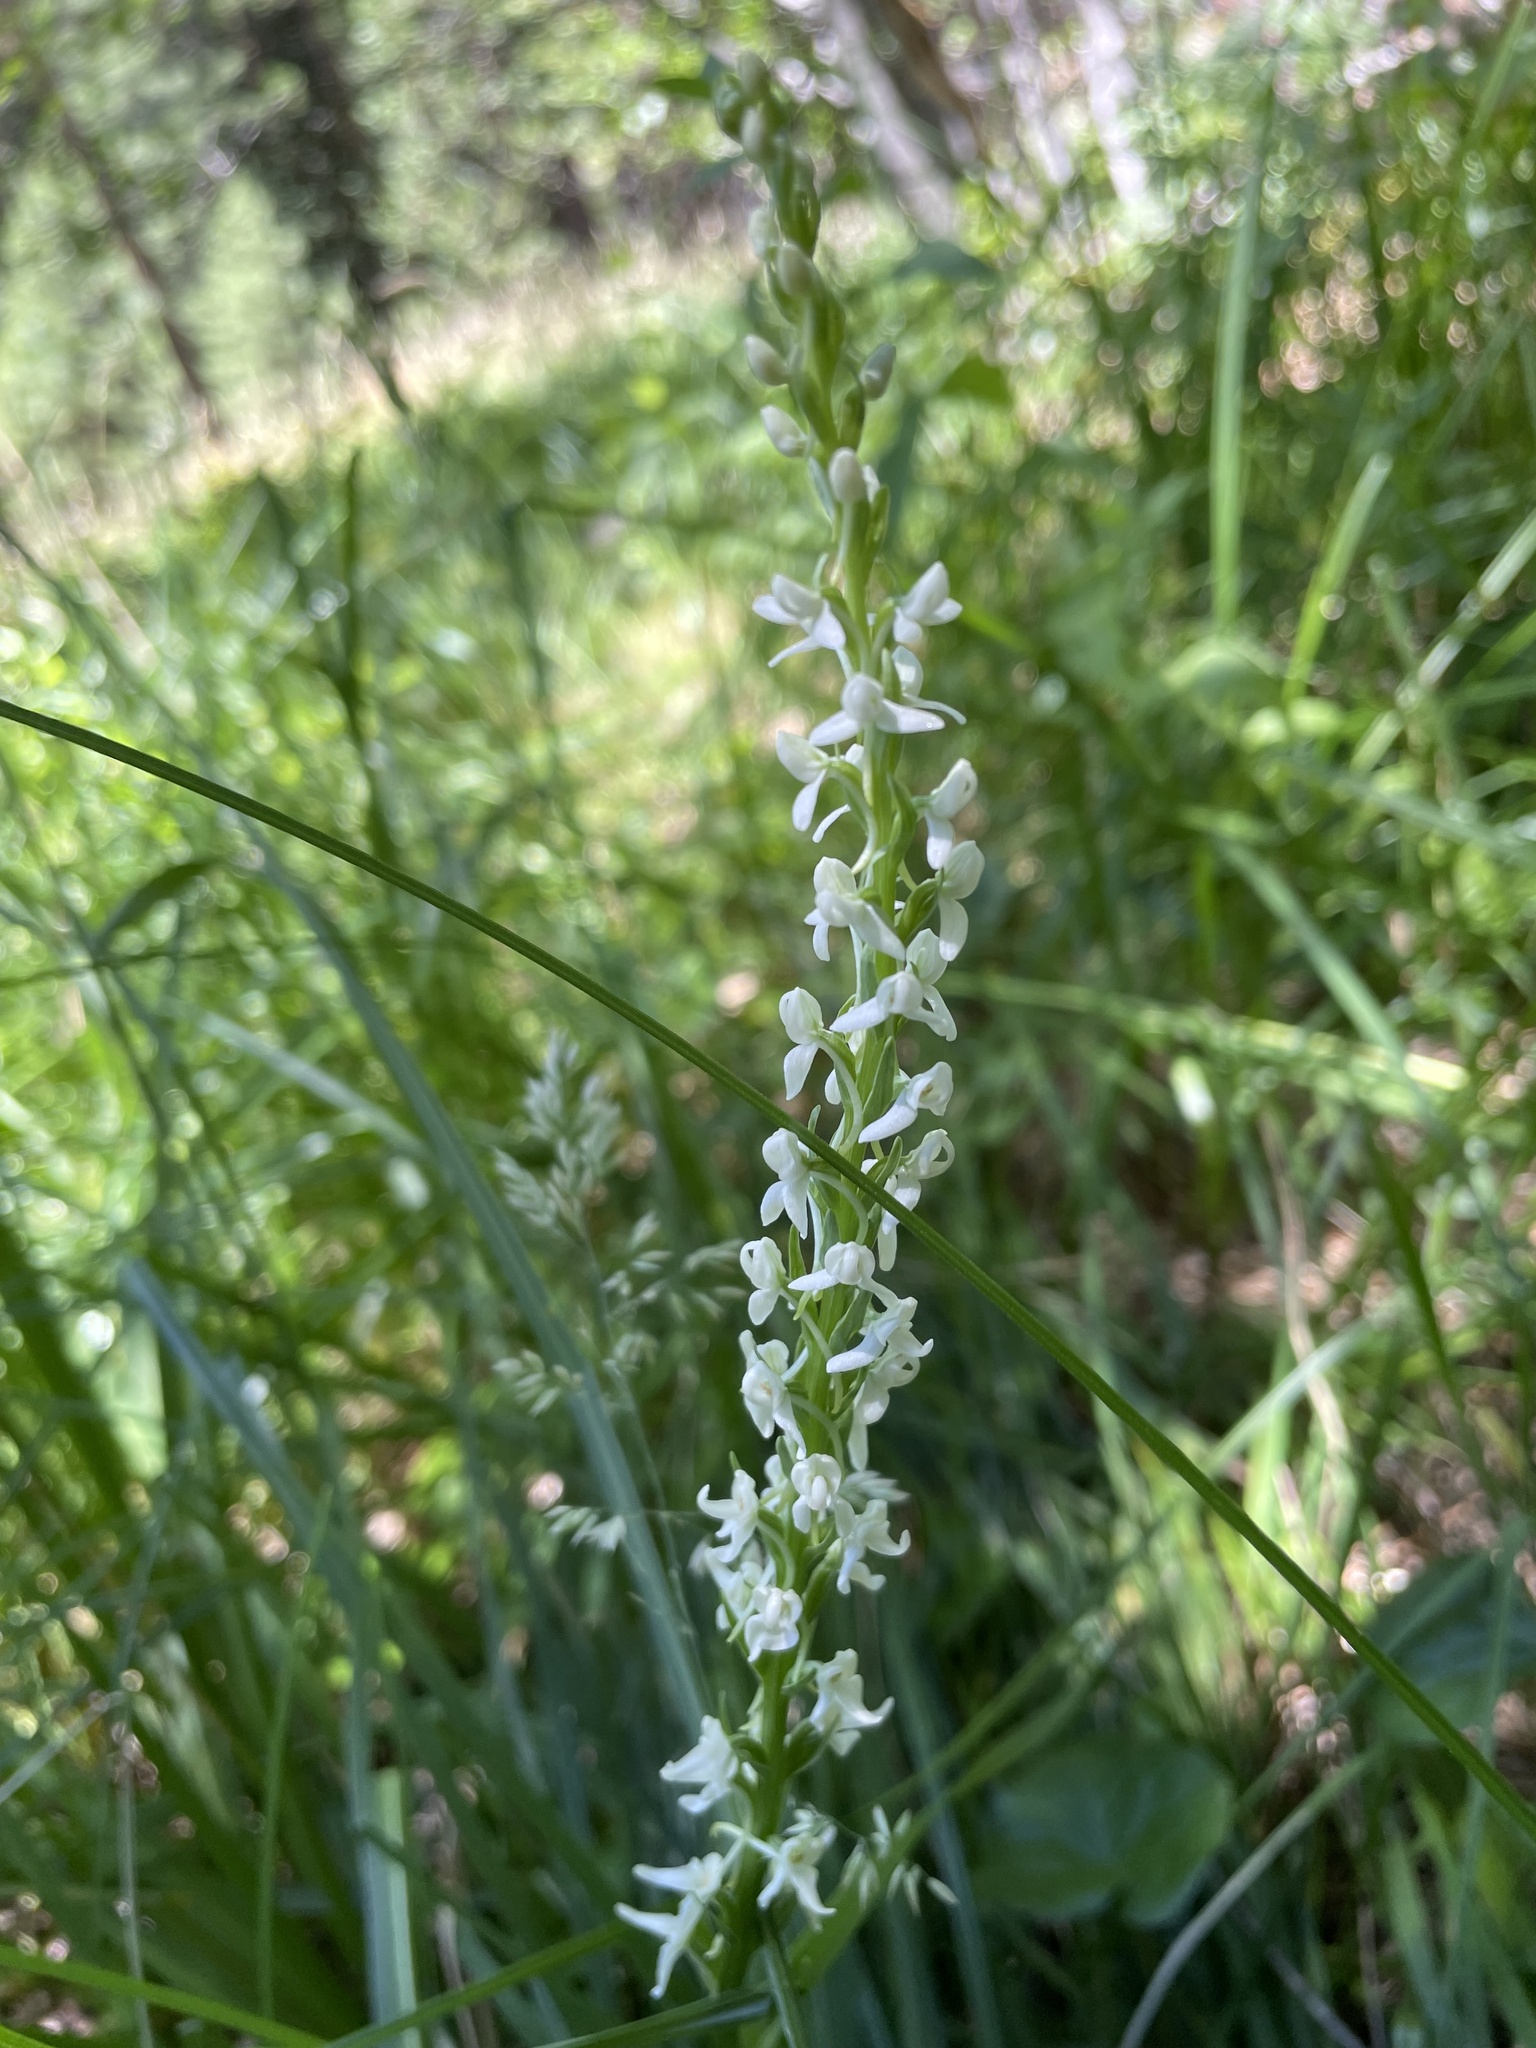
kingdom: Plantae
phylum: Tracheophyta
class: Liliopsida
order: Asparagales
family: Orchidaceae
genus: Platanthera
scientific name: Platanthera dilatata
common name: Bog candles
